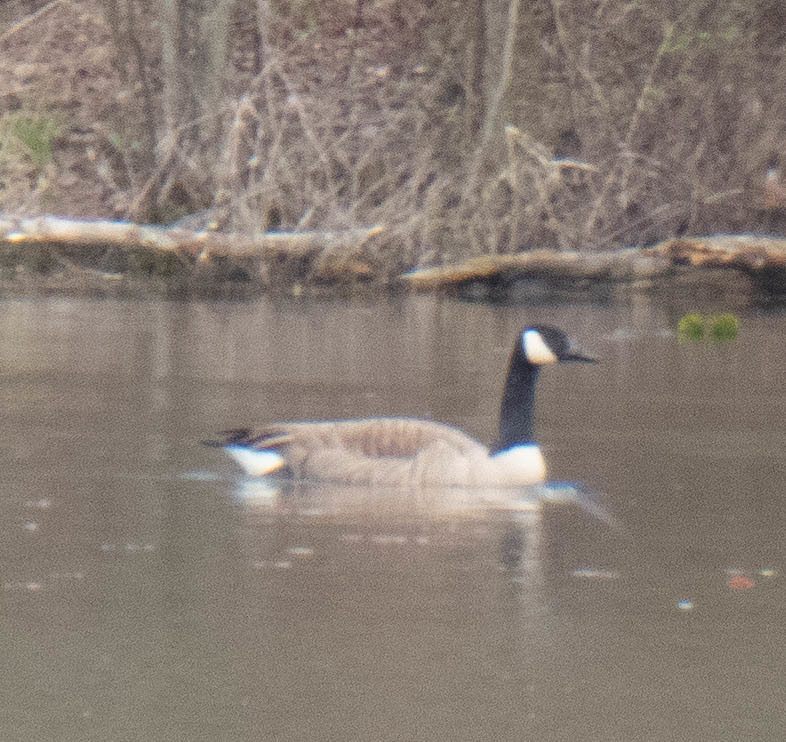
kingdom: Animalia
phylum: Chordata
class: Aves
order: Anseriformes
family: Anatidae
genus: Branta
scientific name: Branta canadensis
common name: Canada goose
